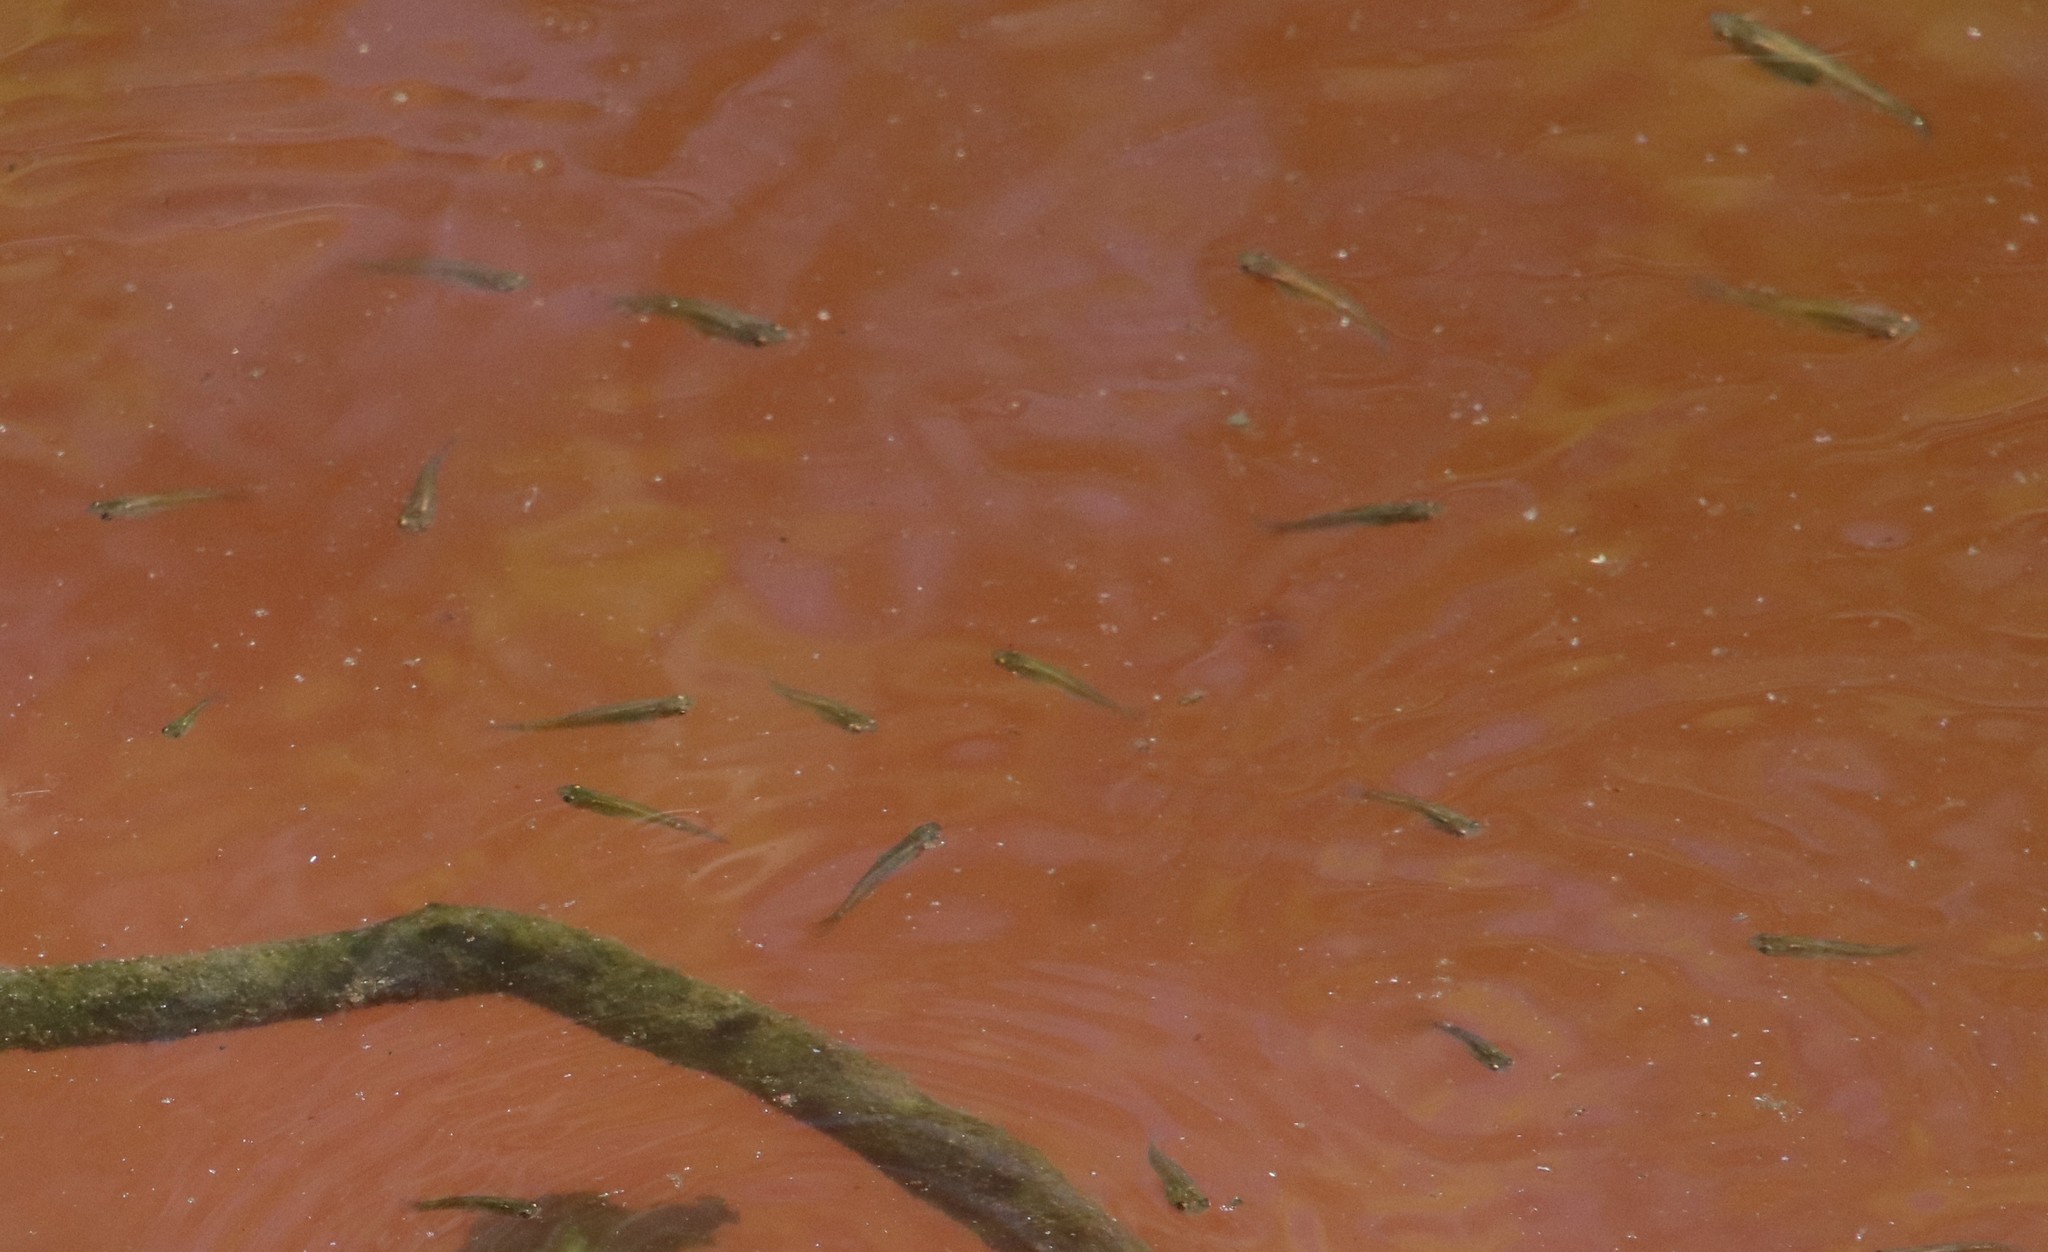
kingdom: Animalia
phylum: Chordata
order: Cyprinodontiformes
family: Poeciliidae
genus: Gambusia
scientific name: Gambusia affinis
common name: Mosquitofish
